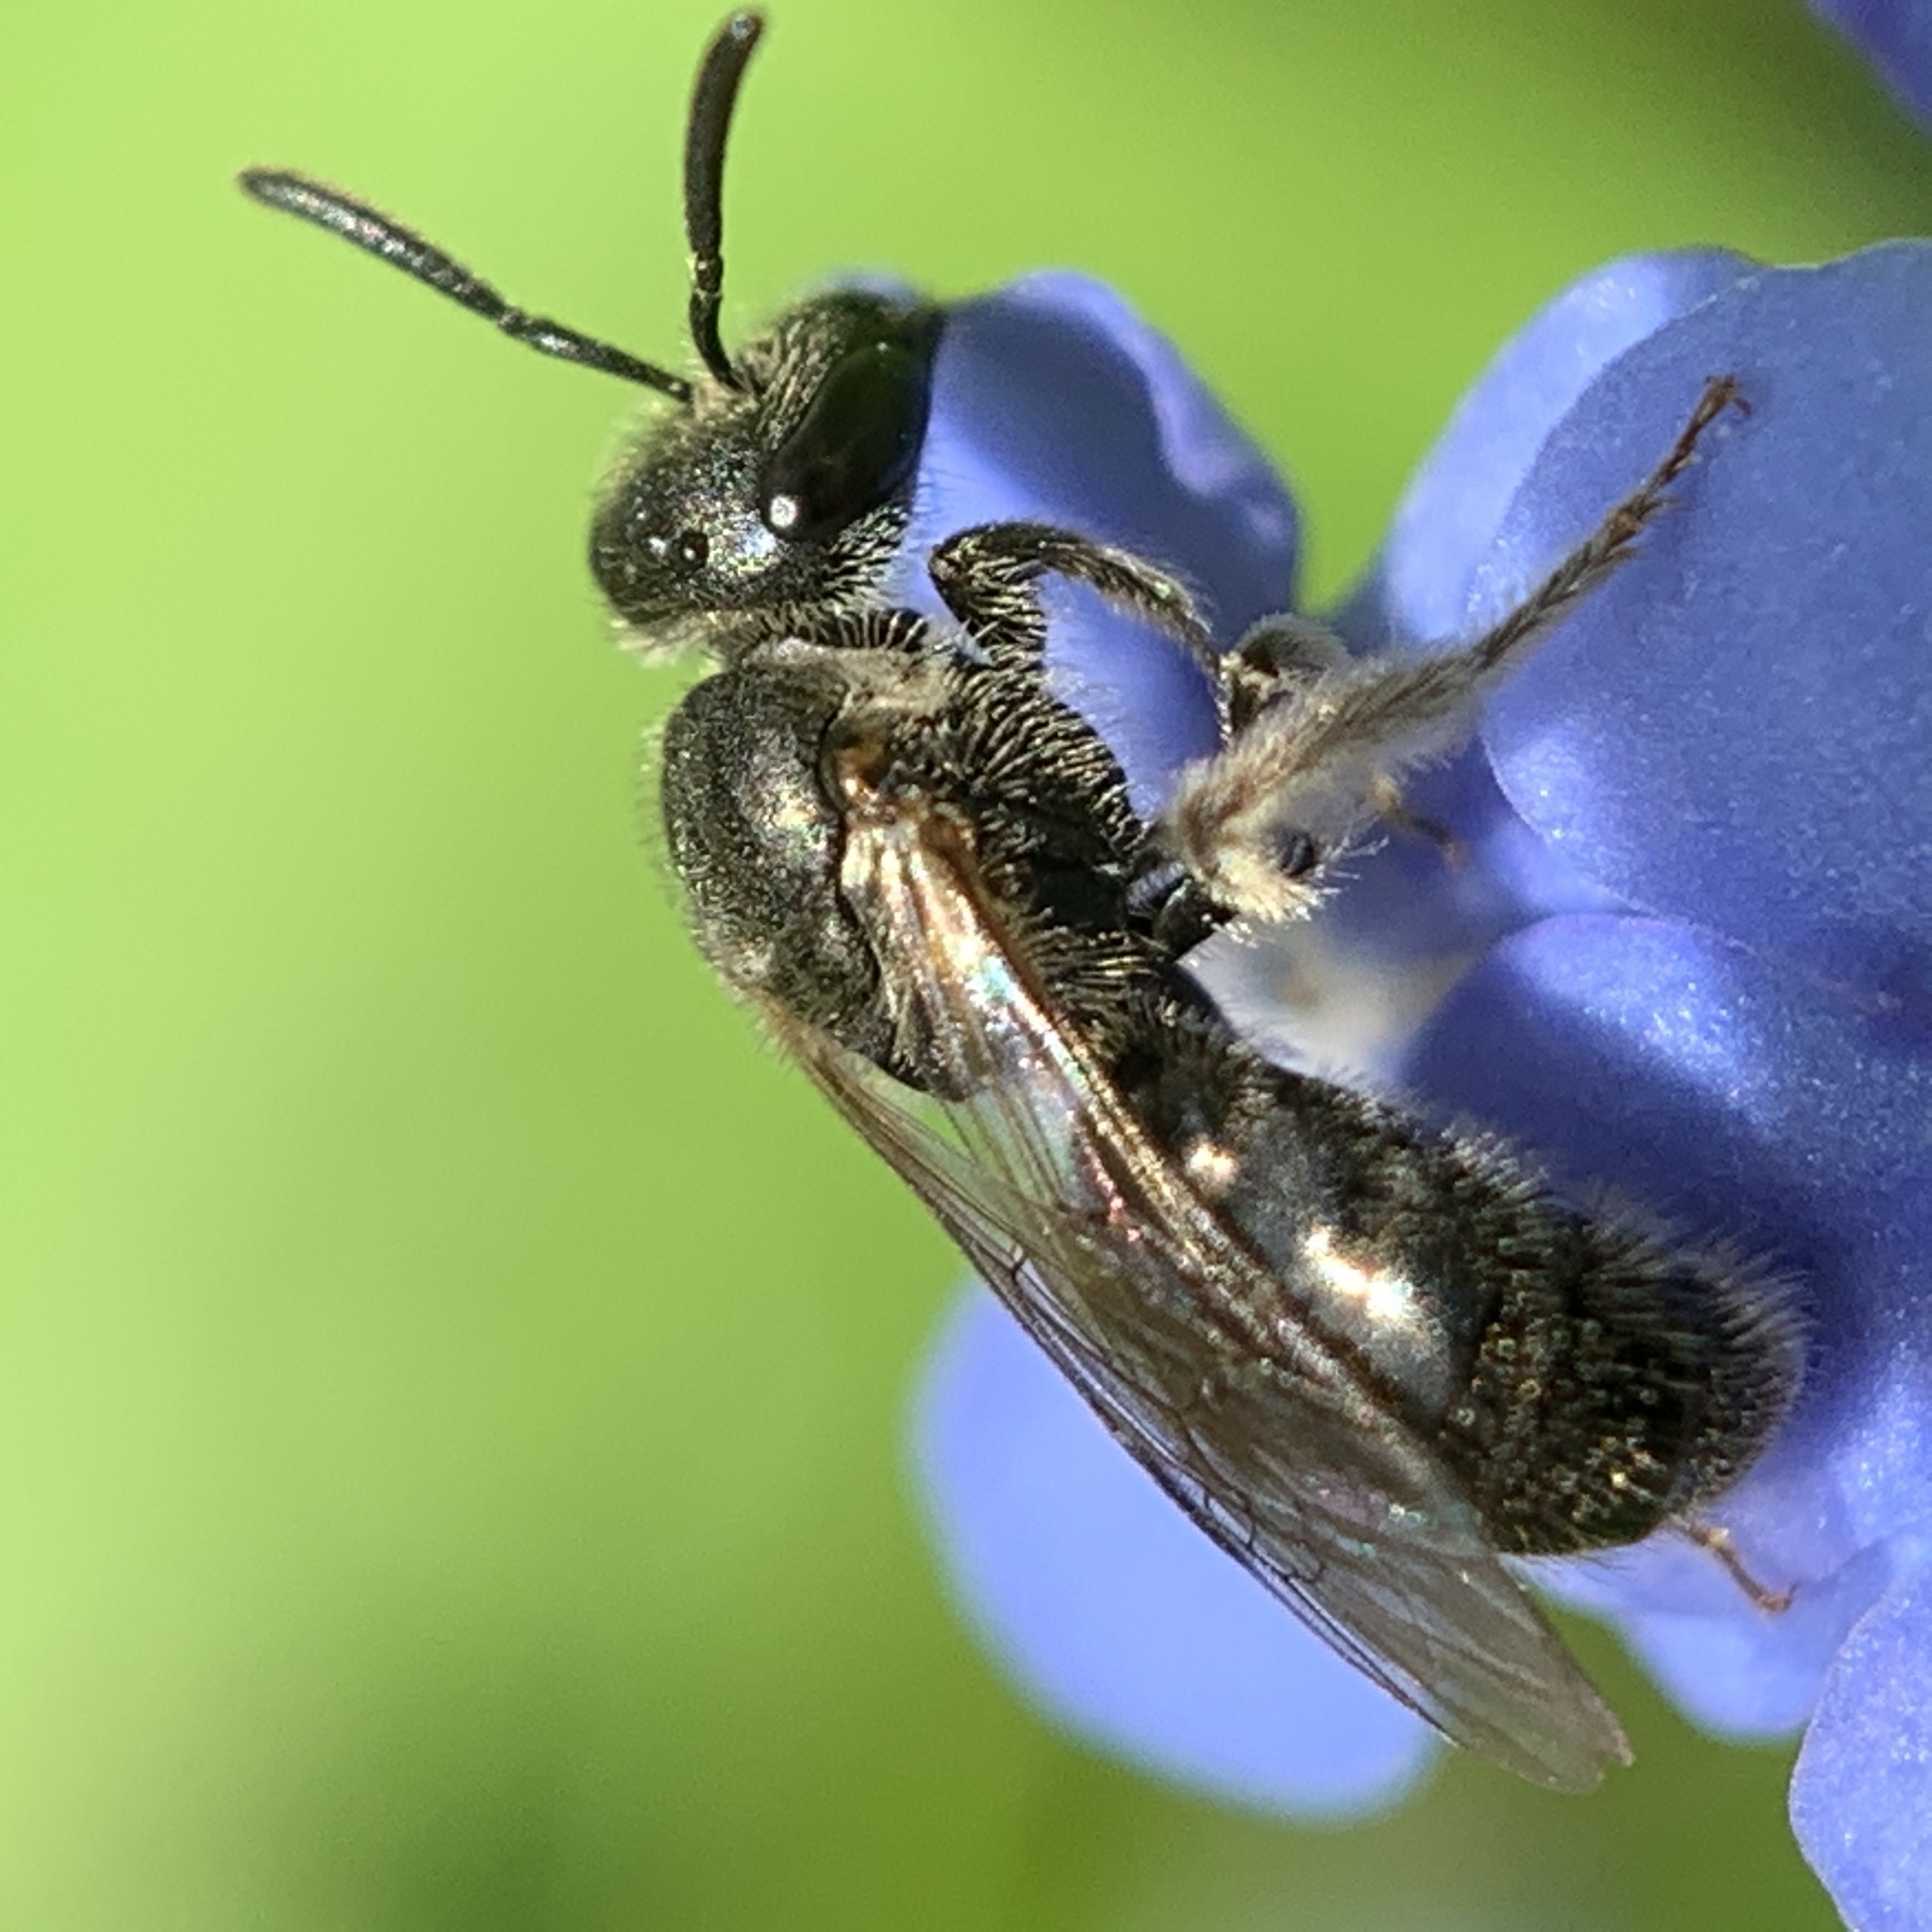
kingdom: Animalia
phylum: Arthropoda
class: Insecta
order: Hymenoptera
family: Halictidae
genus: Dialictus
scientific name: Dialictus
